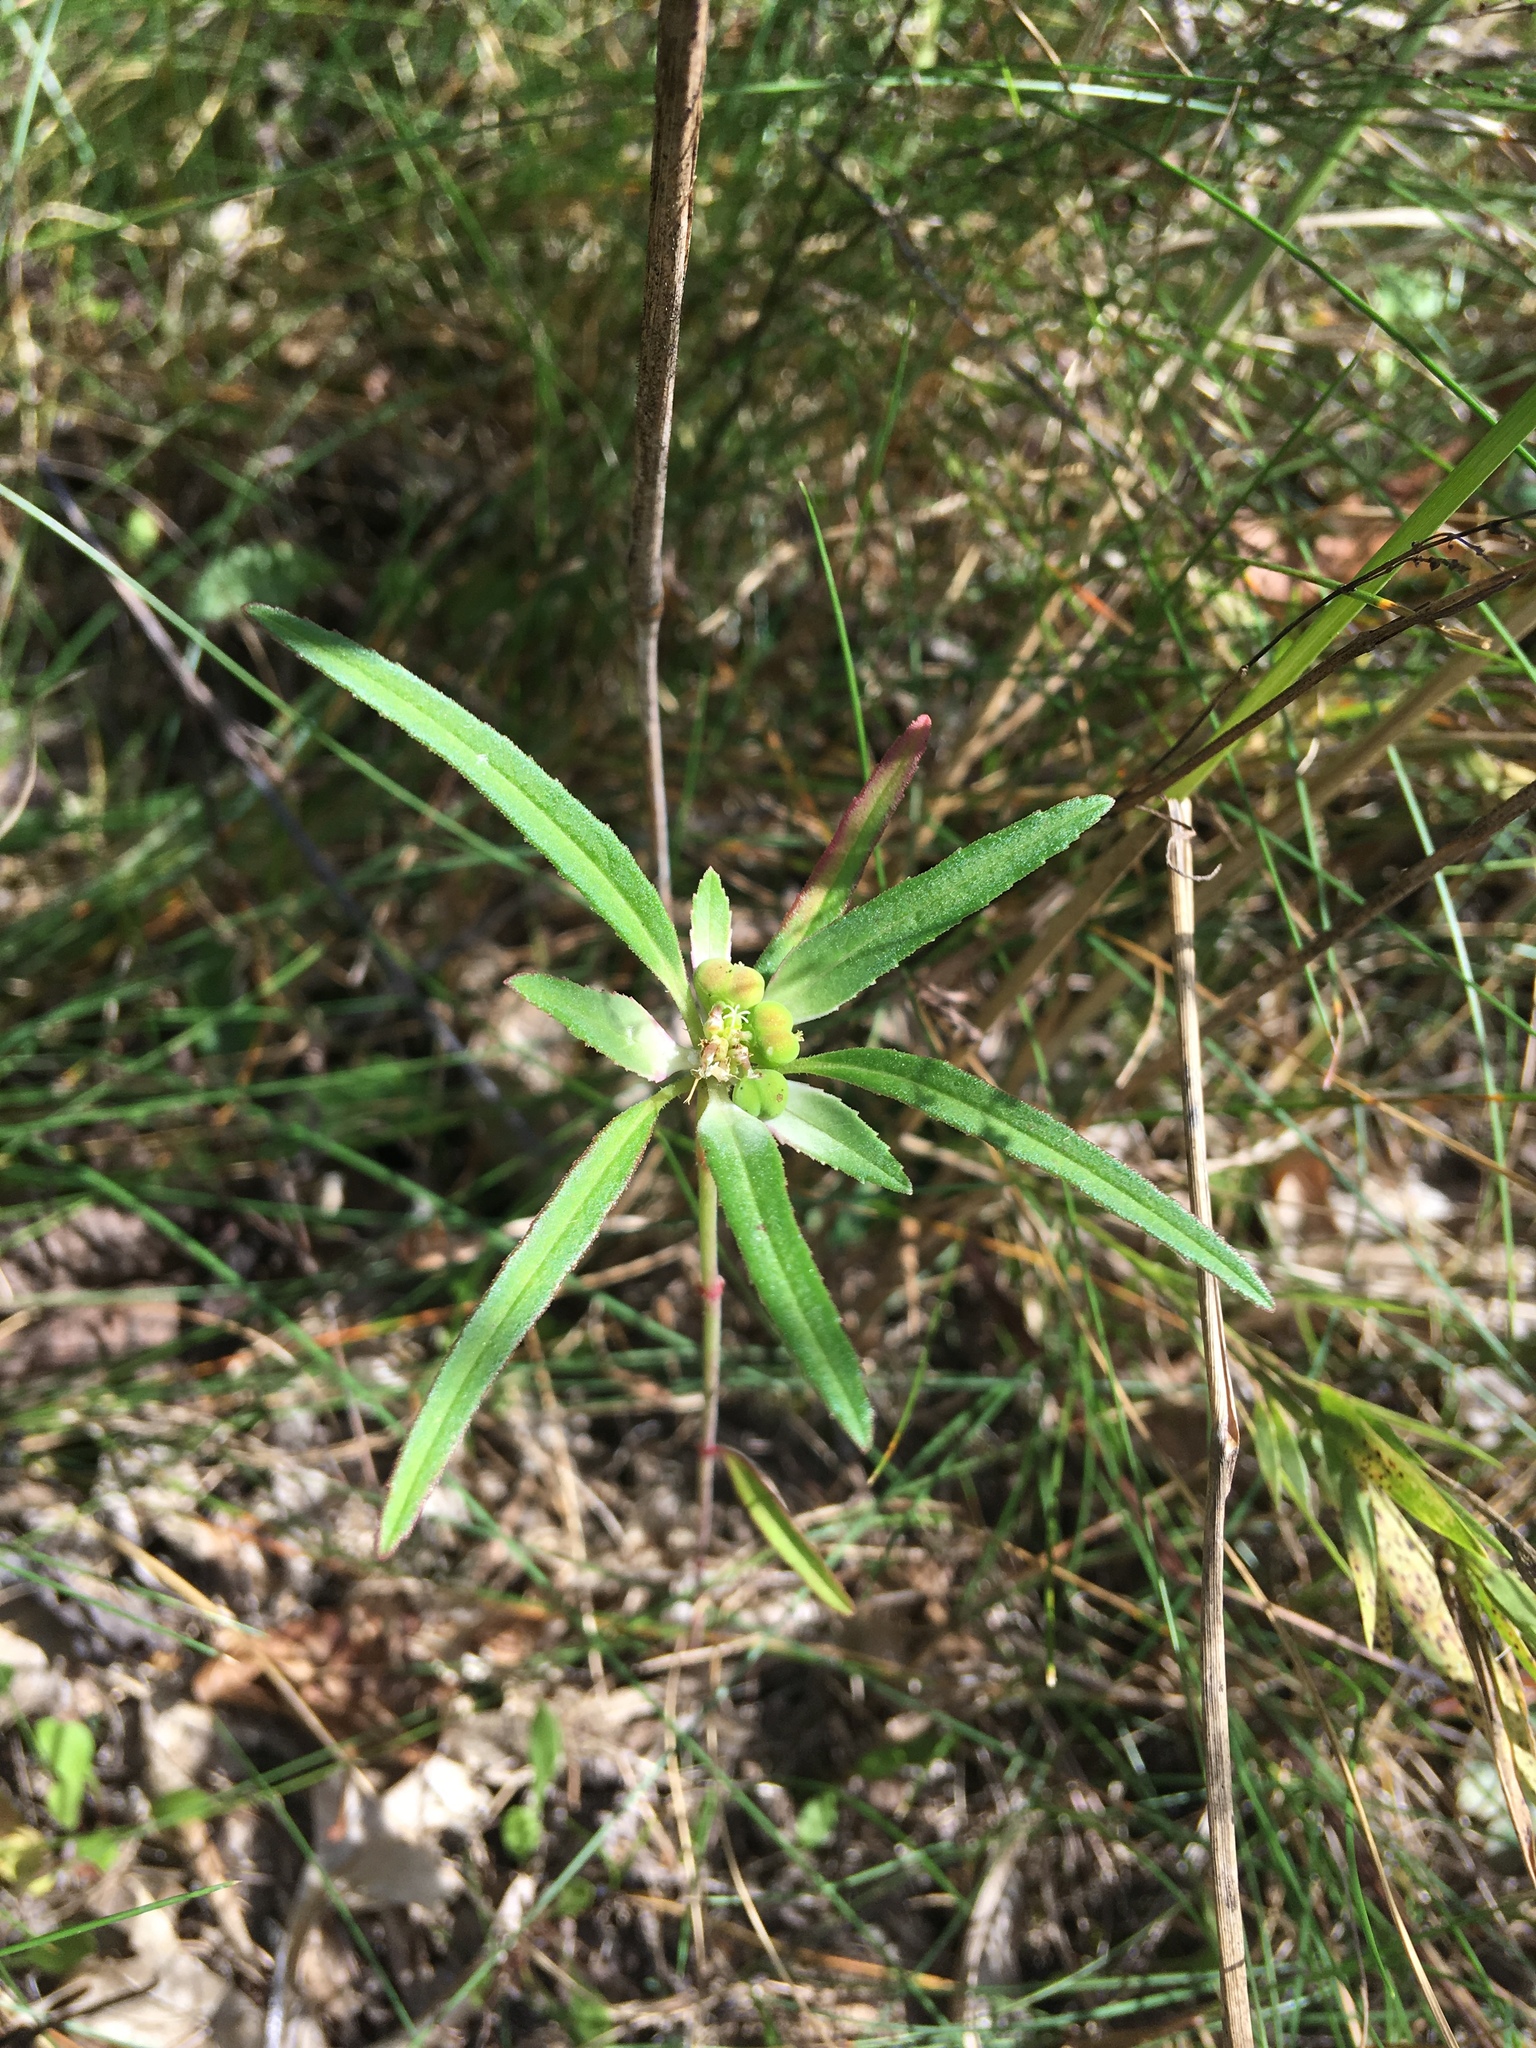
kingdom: Plantae
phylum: Tracheophyta
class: Magnoliopsida
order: Malpighiales
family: Euphorbiaceae
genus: Euphorbia
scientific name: Euphorbia dentata
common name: Dentate spurge
